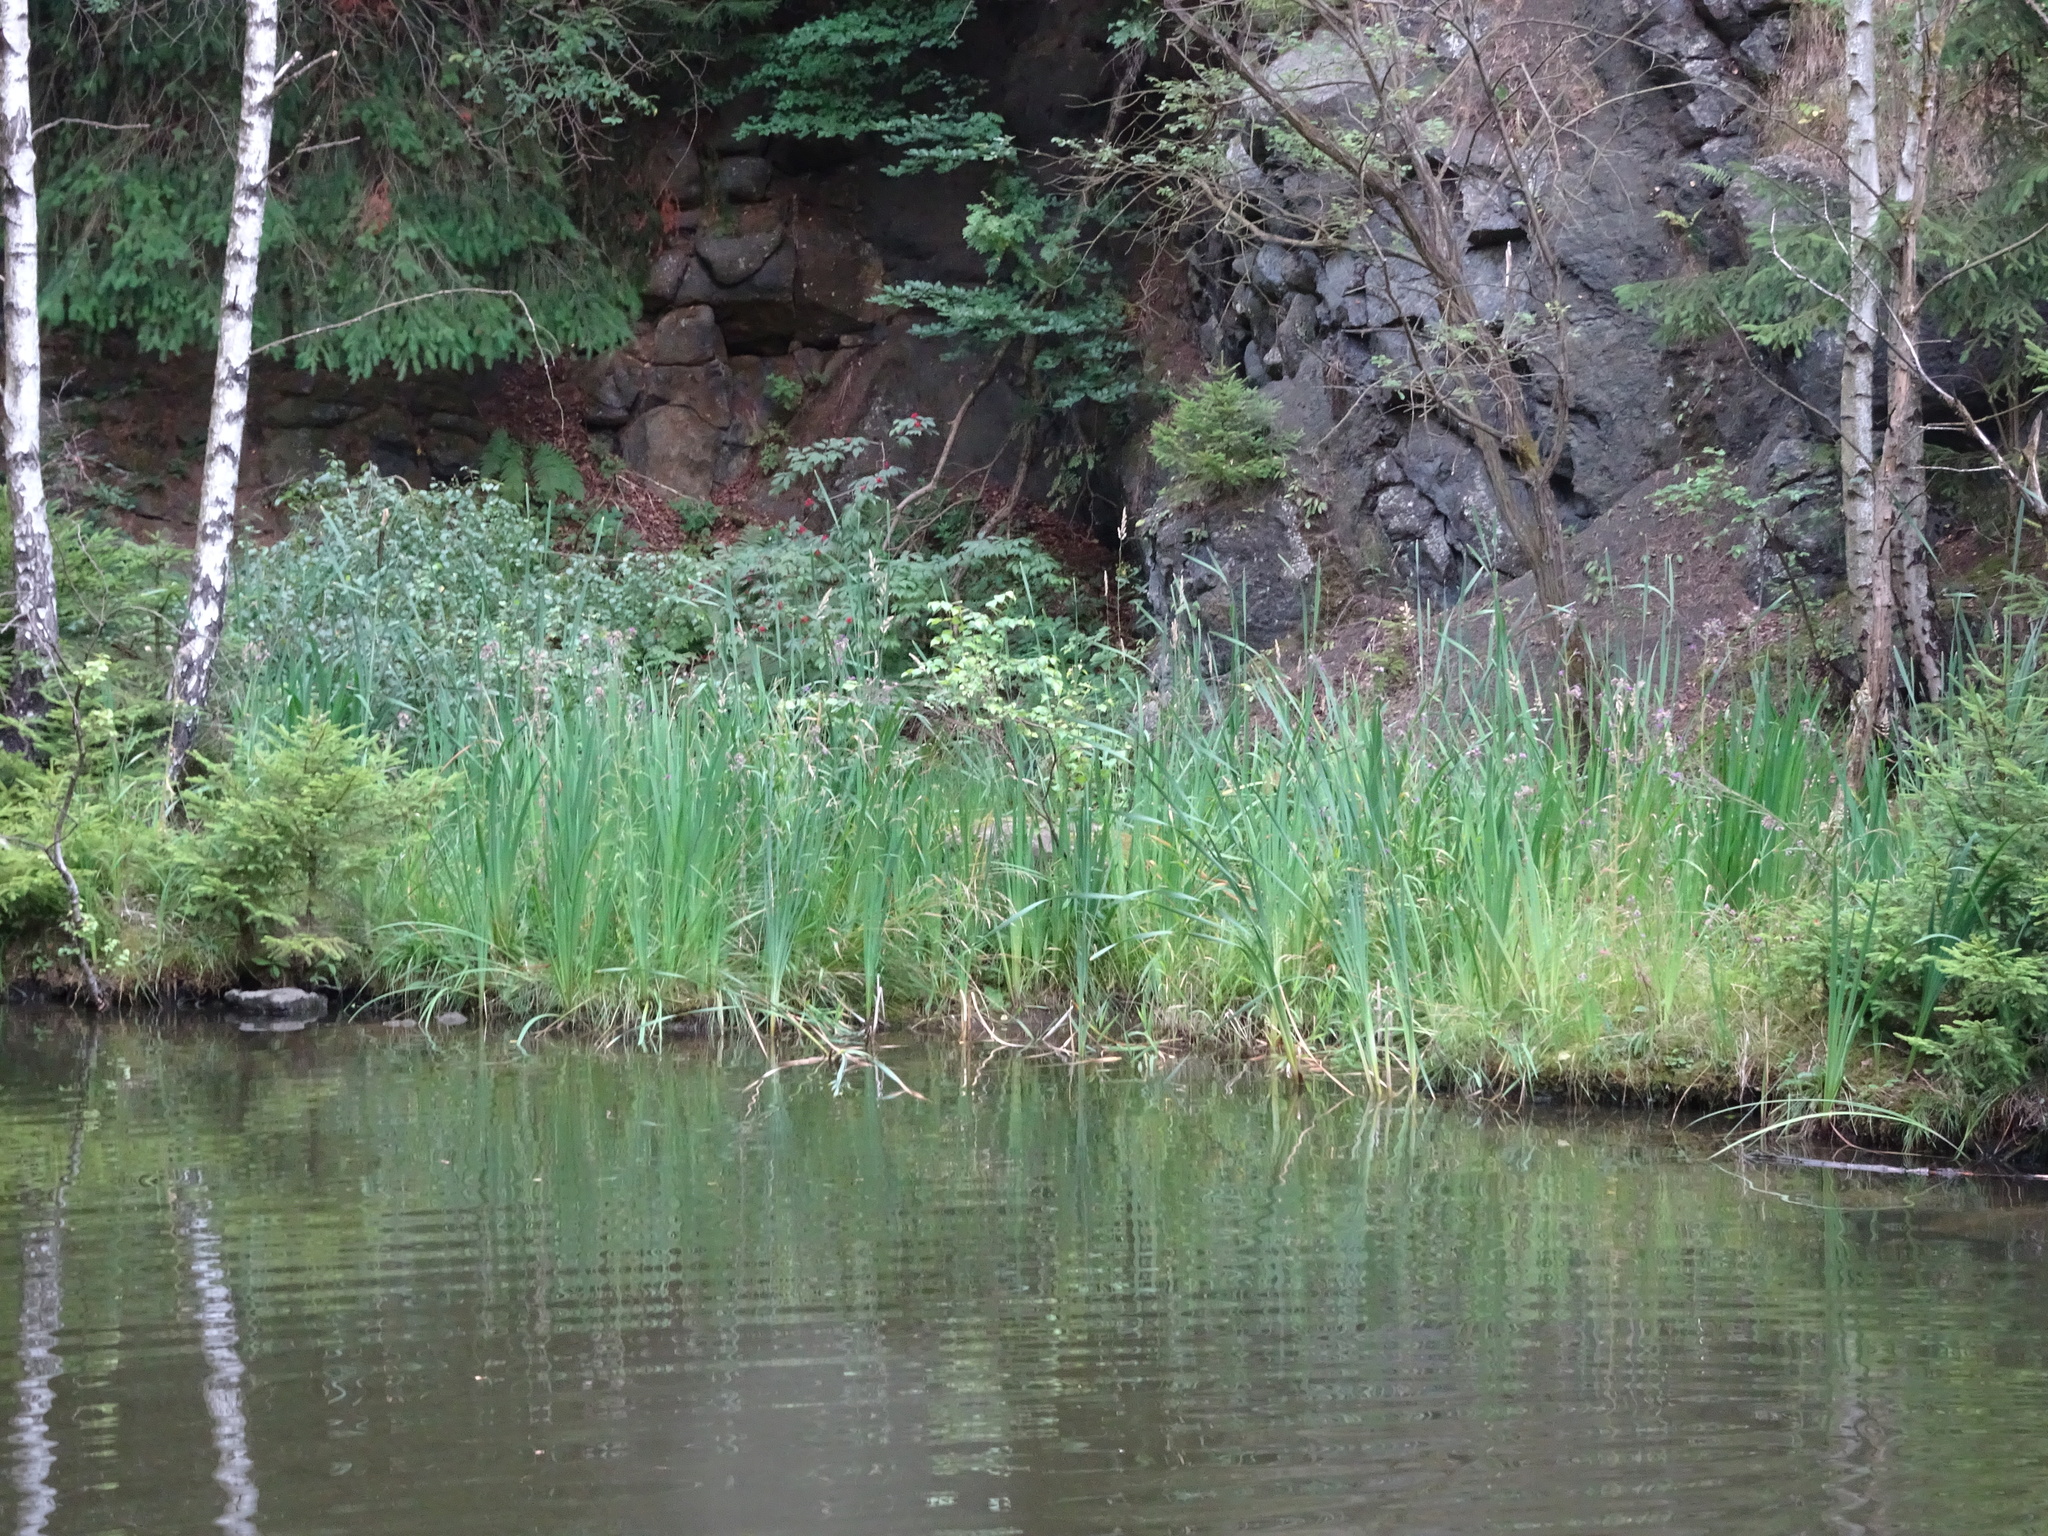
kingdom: Plantae
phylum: Tracheophyta
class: Liliopsida
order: Poales
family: Typhaceae
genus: Typha
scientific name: Typha latifolia
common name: Broadleaf cattail
